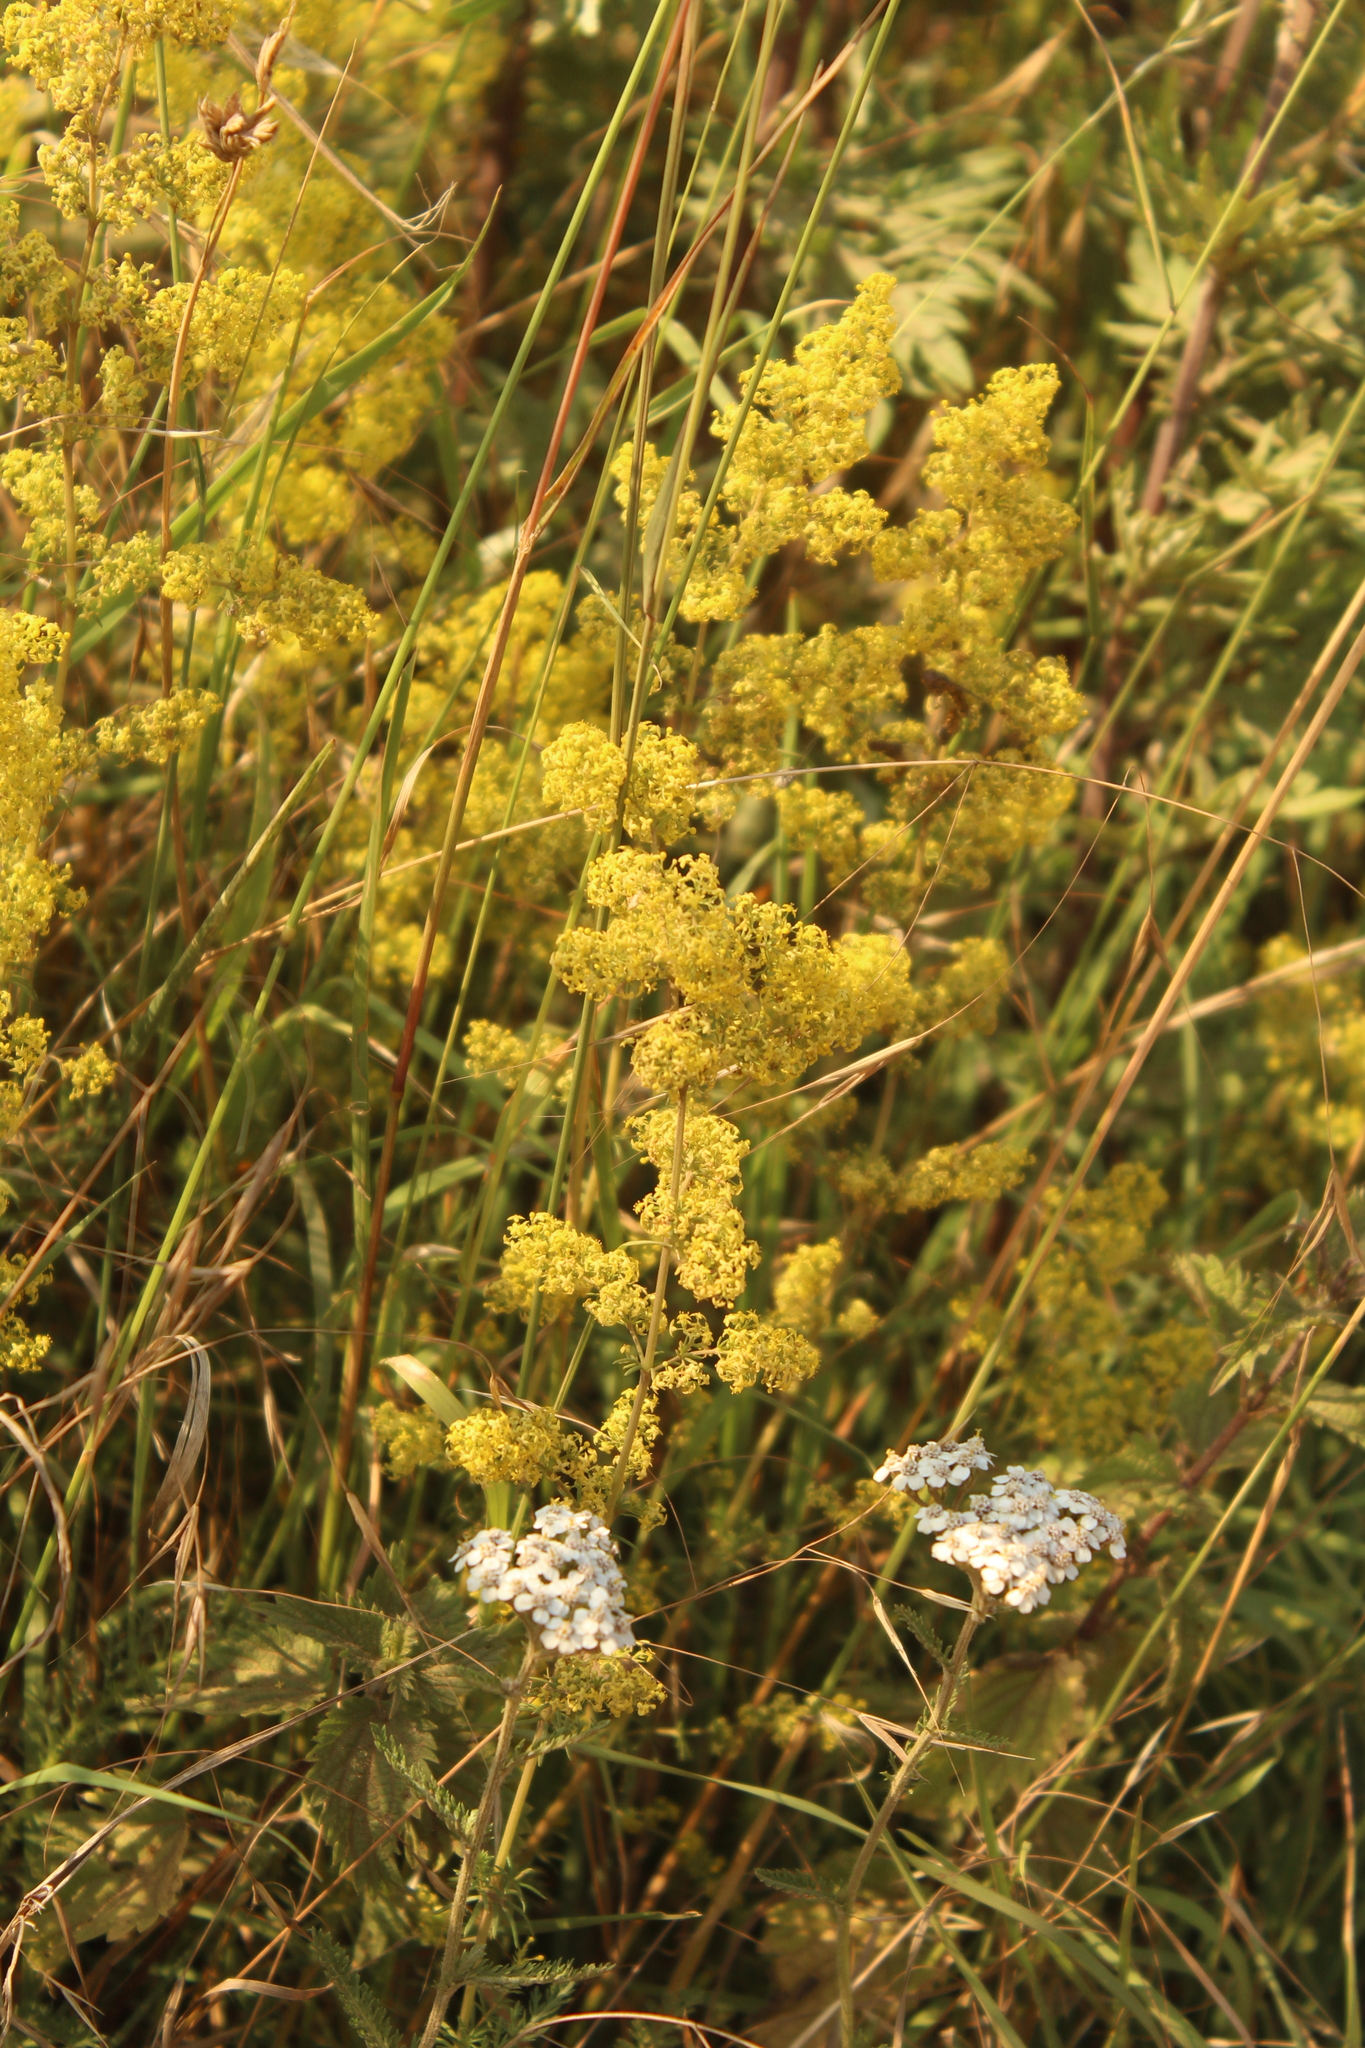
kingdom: Plantae
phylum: Tracheophyta
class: Magnoliopsida
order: Gentianales
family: Rubiaceae
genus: Galium
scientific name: Galium verum
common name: Lady's bedstraw
